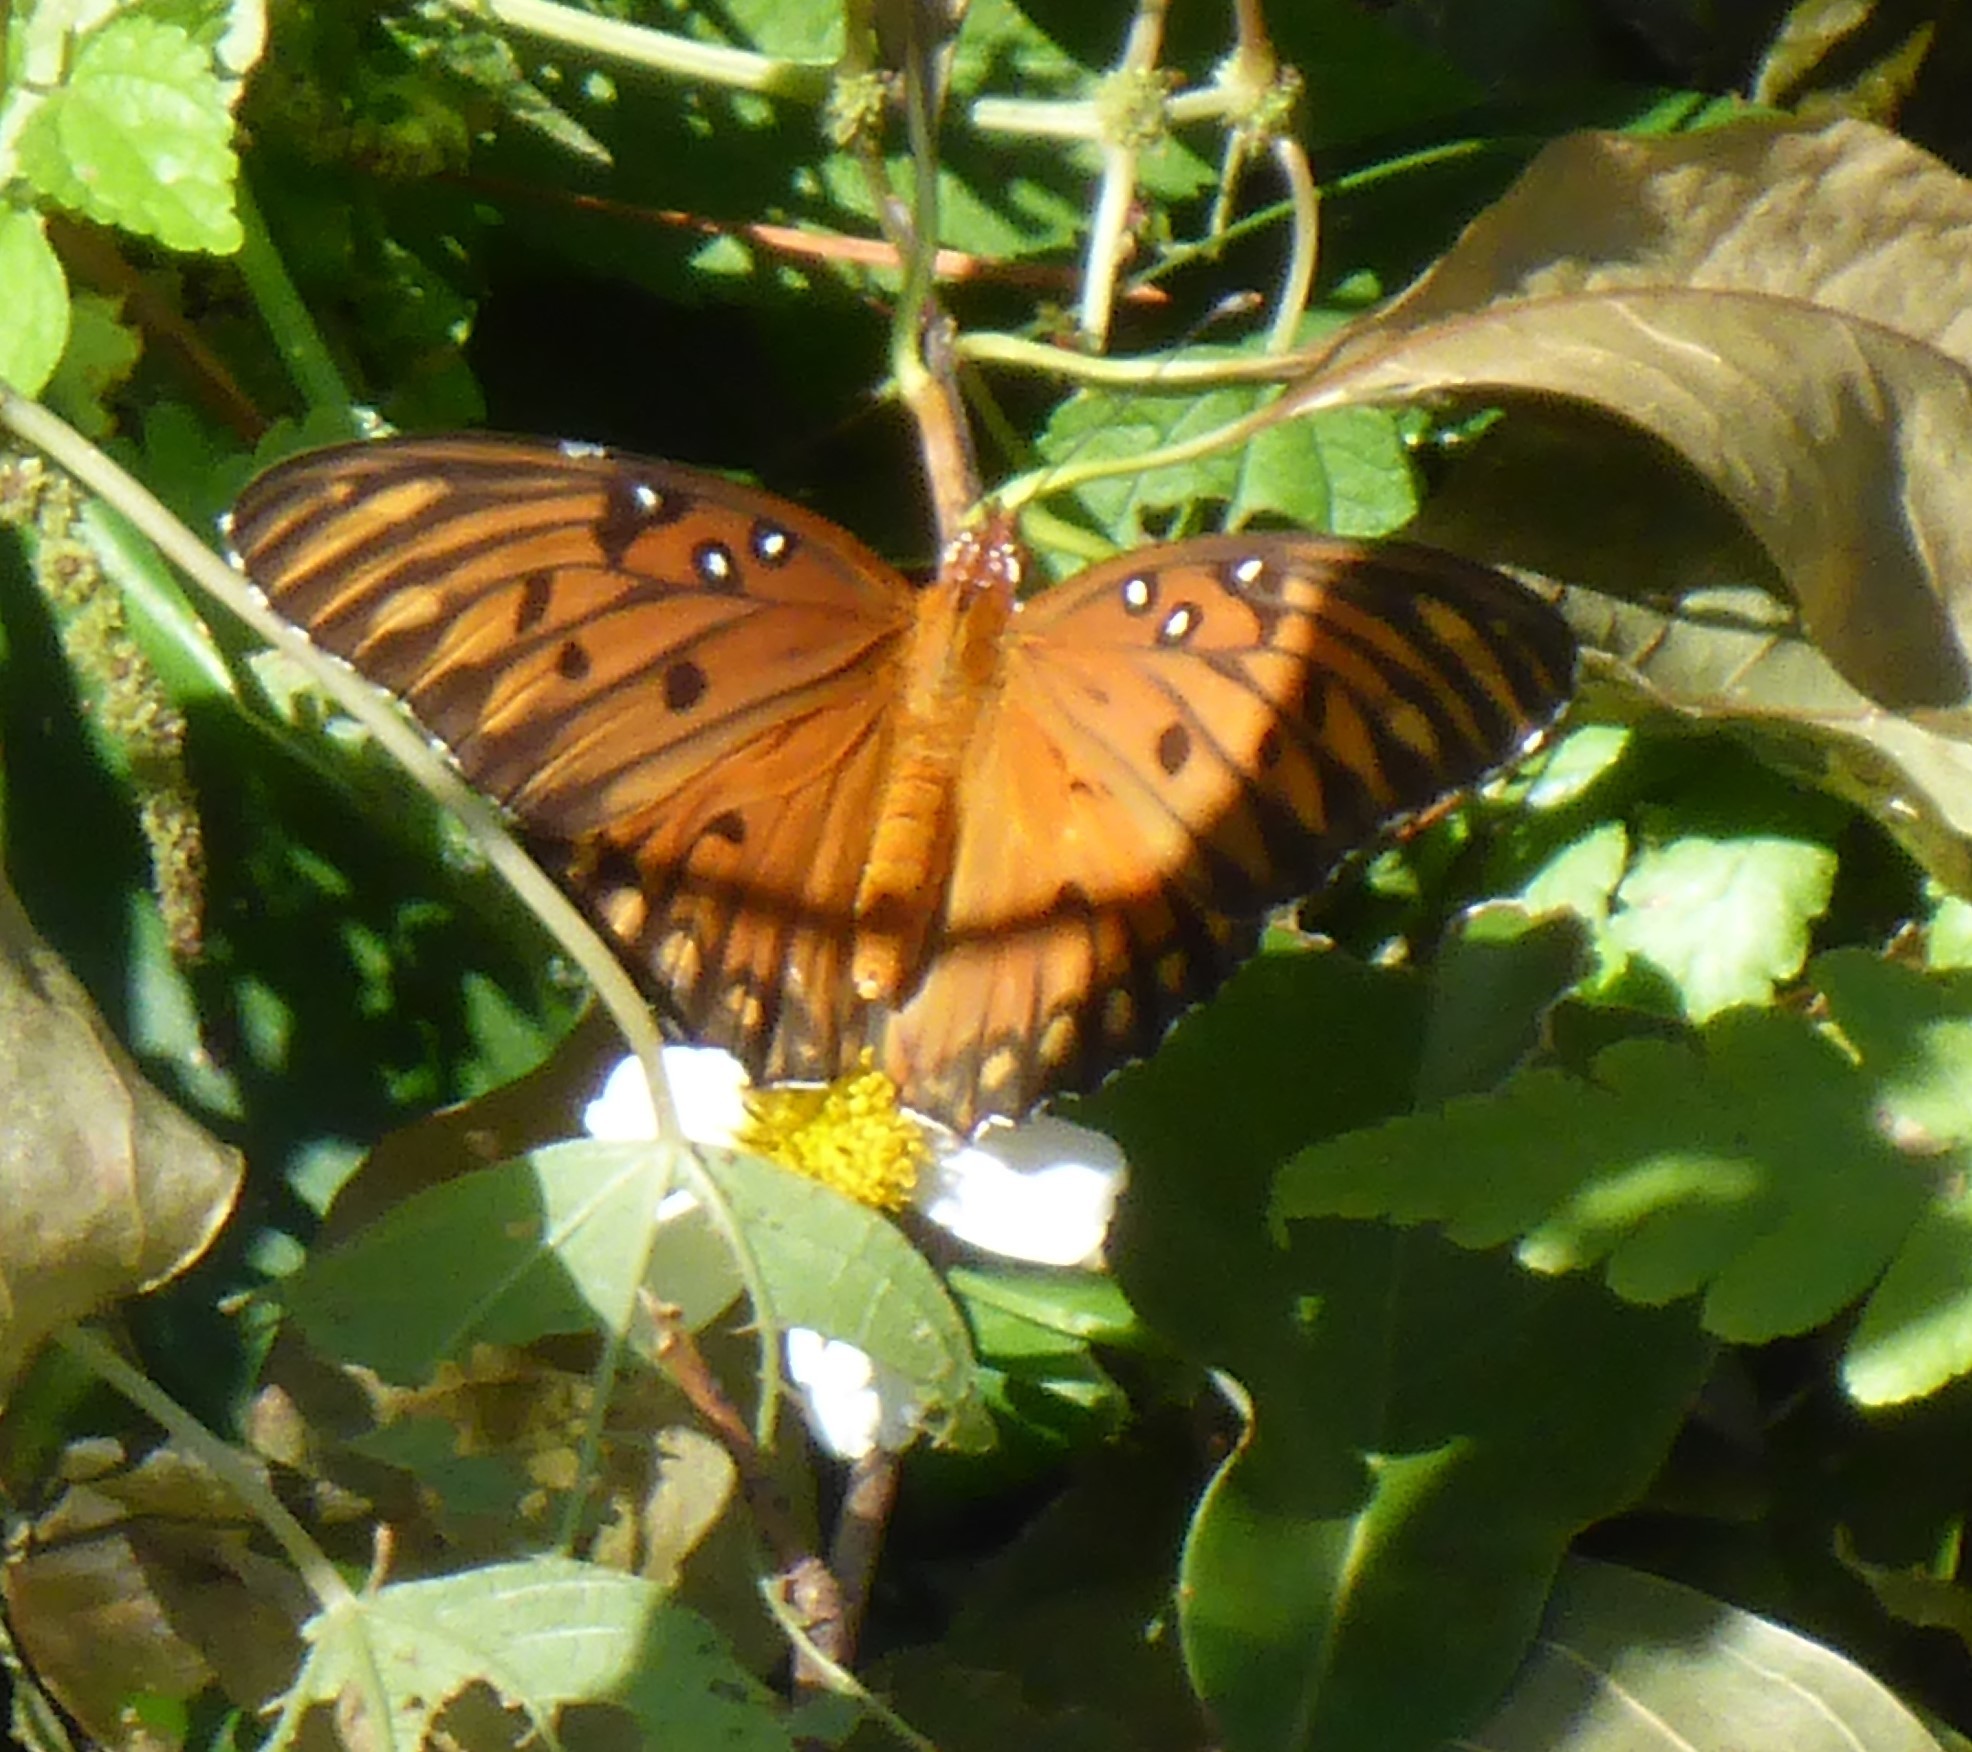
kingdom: Animalia
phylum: Arthropoda
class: Insecta
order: Lepidoptera
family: Nymphalidae
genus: Dione
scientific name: Dione vanillae
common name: Gulf fritillary
